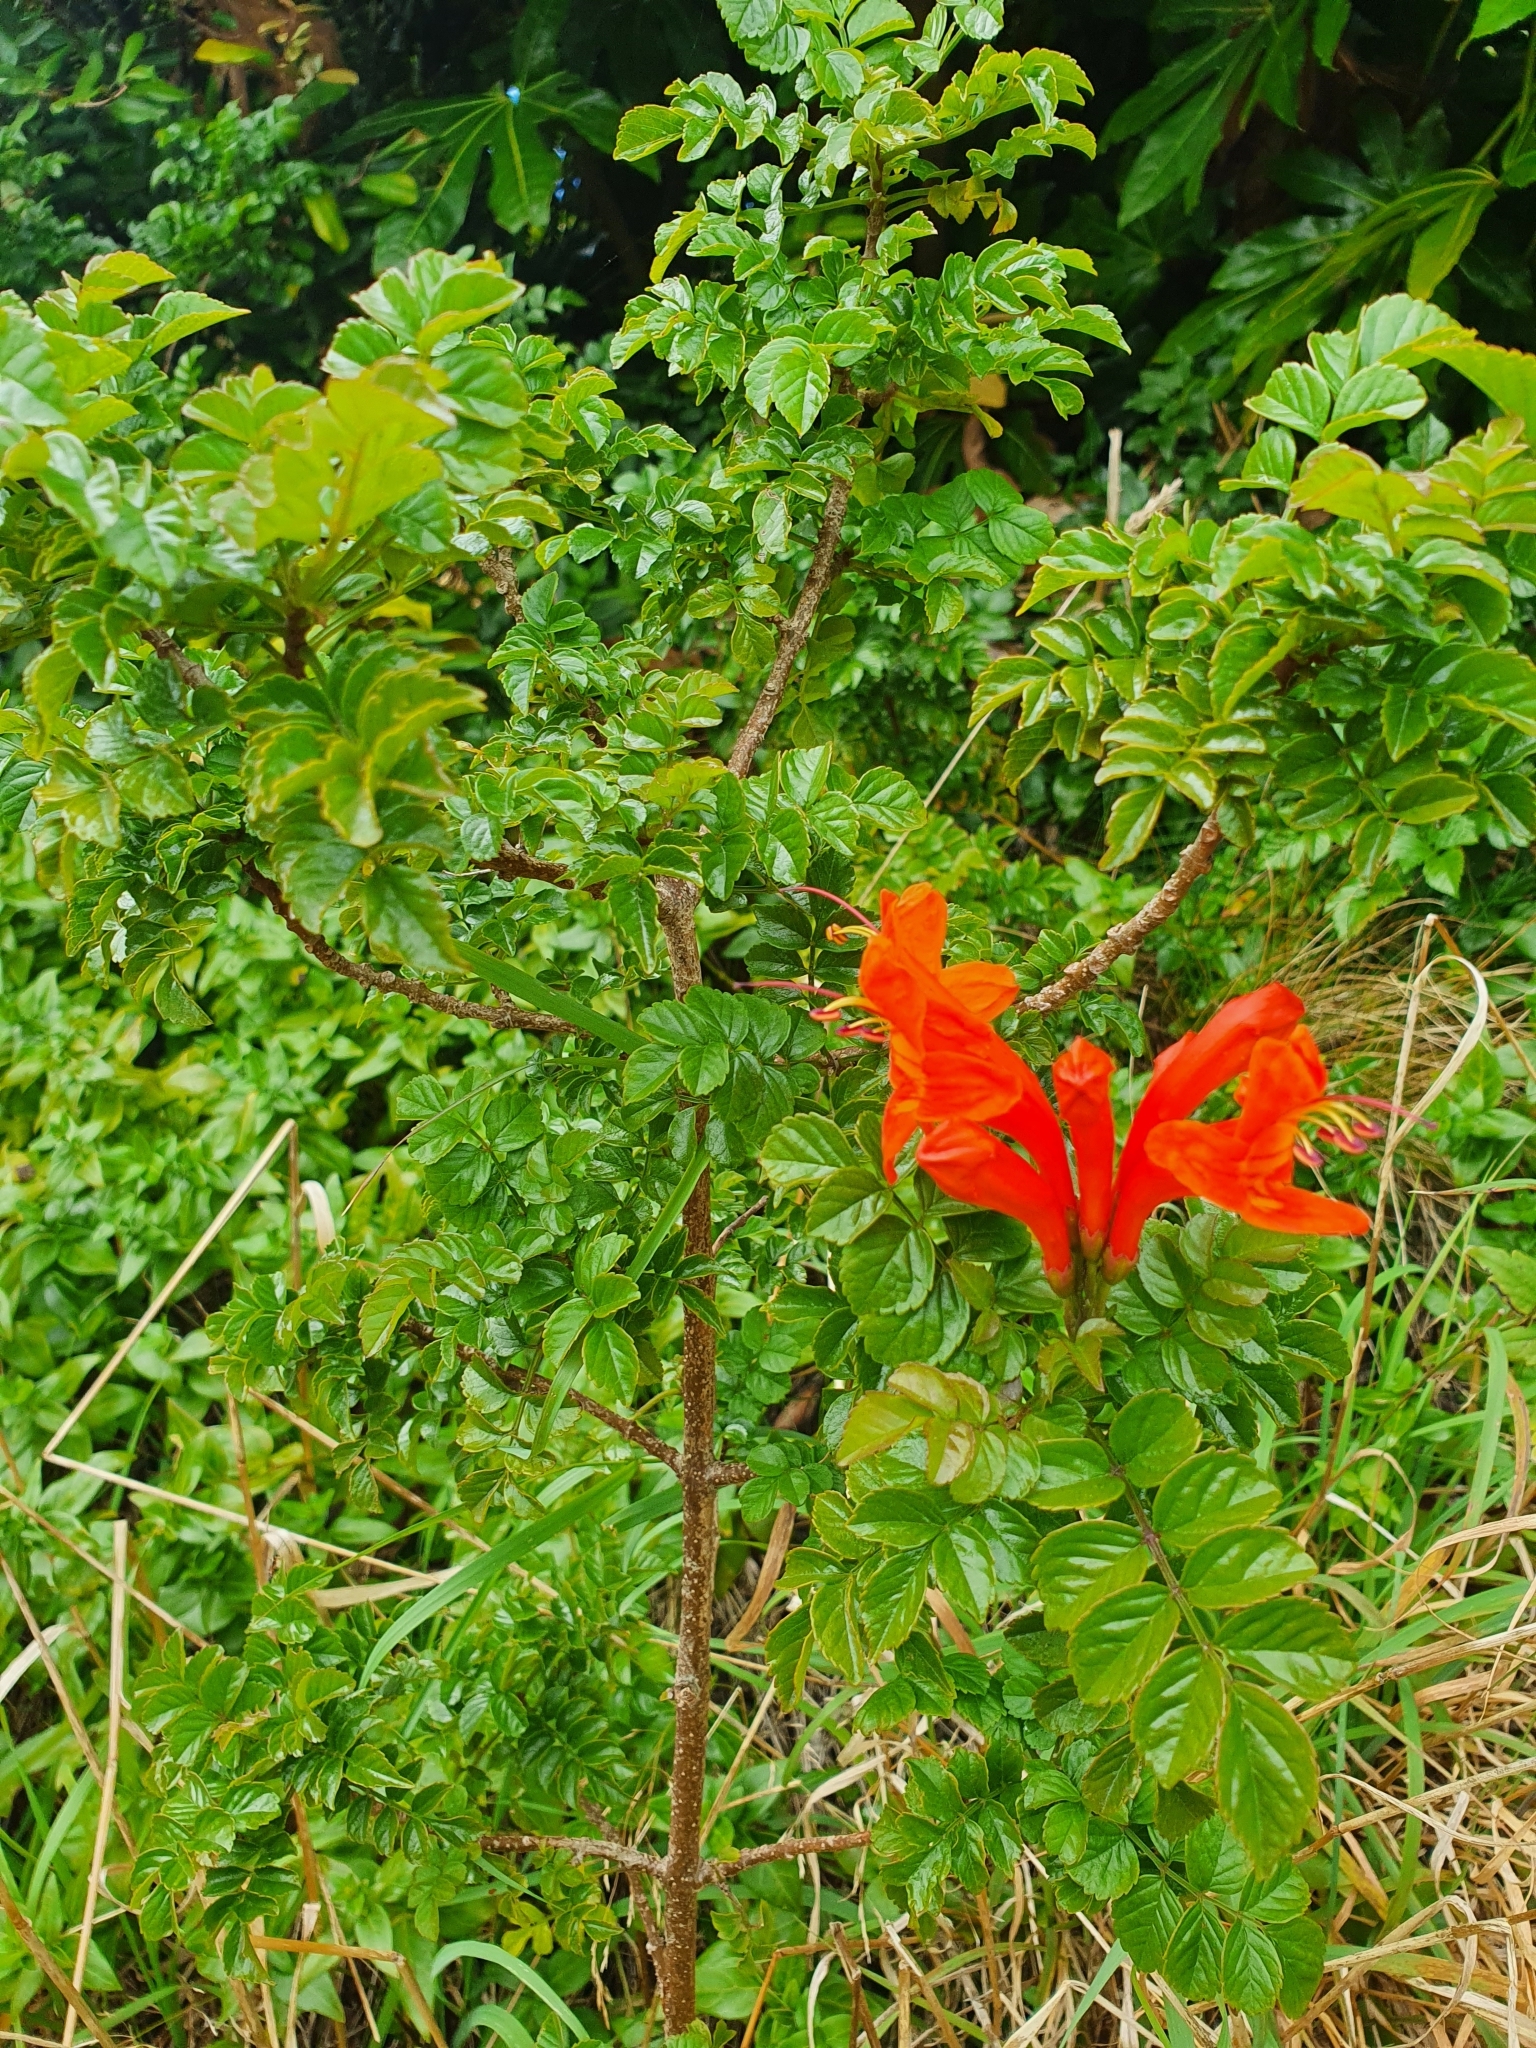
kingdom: Plantae
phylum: Tracheophyta
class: Magnoliopsida
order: Lamiales
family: Bignoniaceae
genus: Tecomaria
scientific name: Tecomaria capensis
